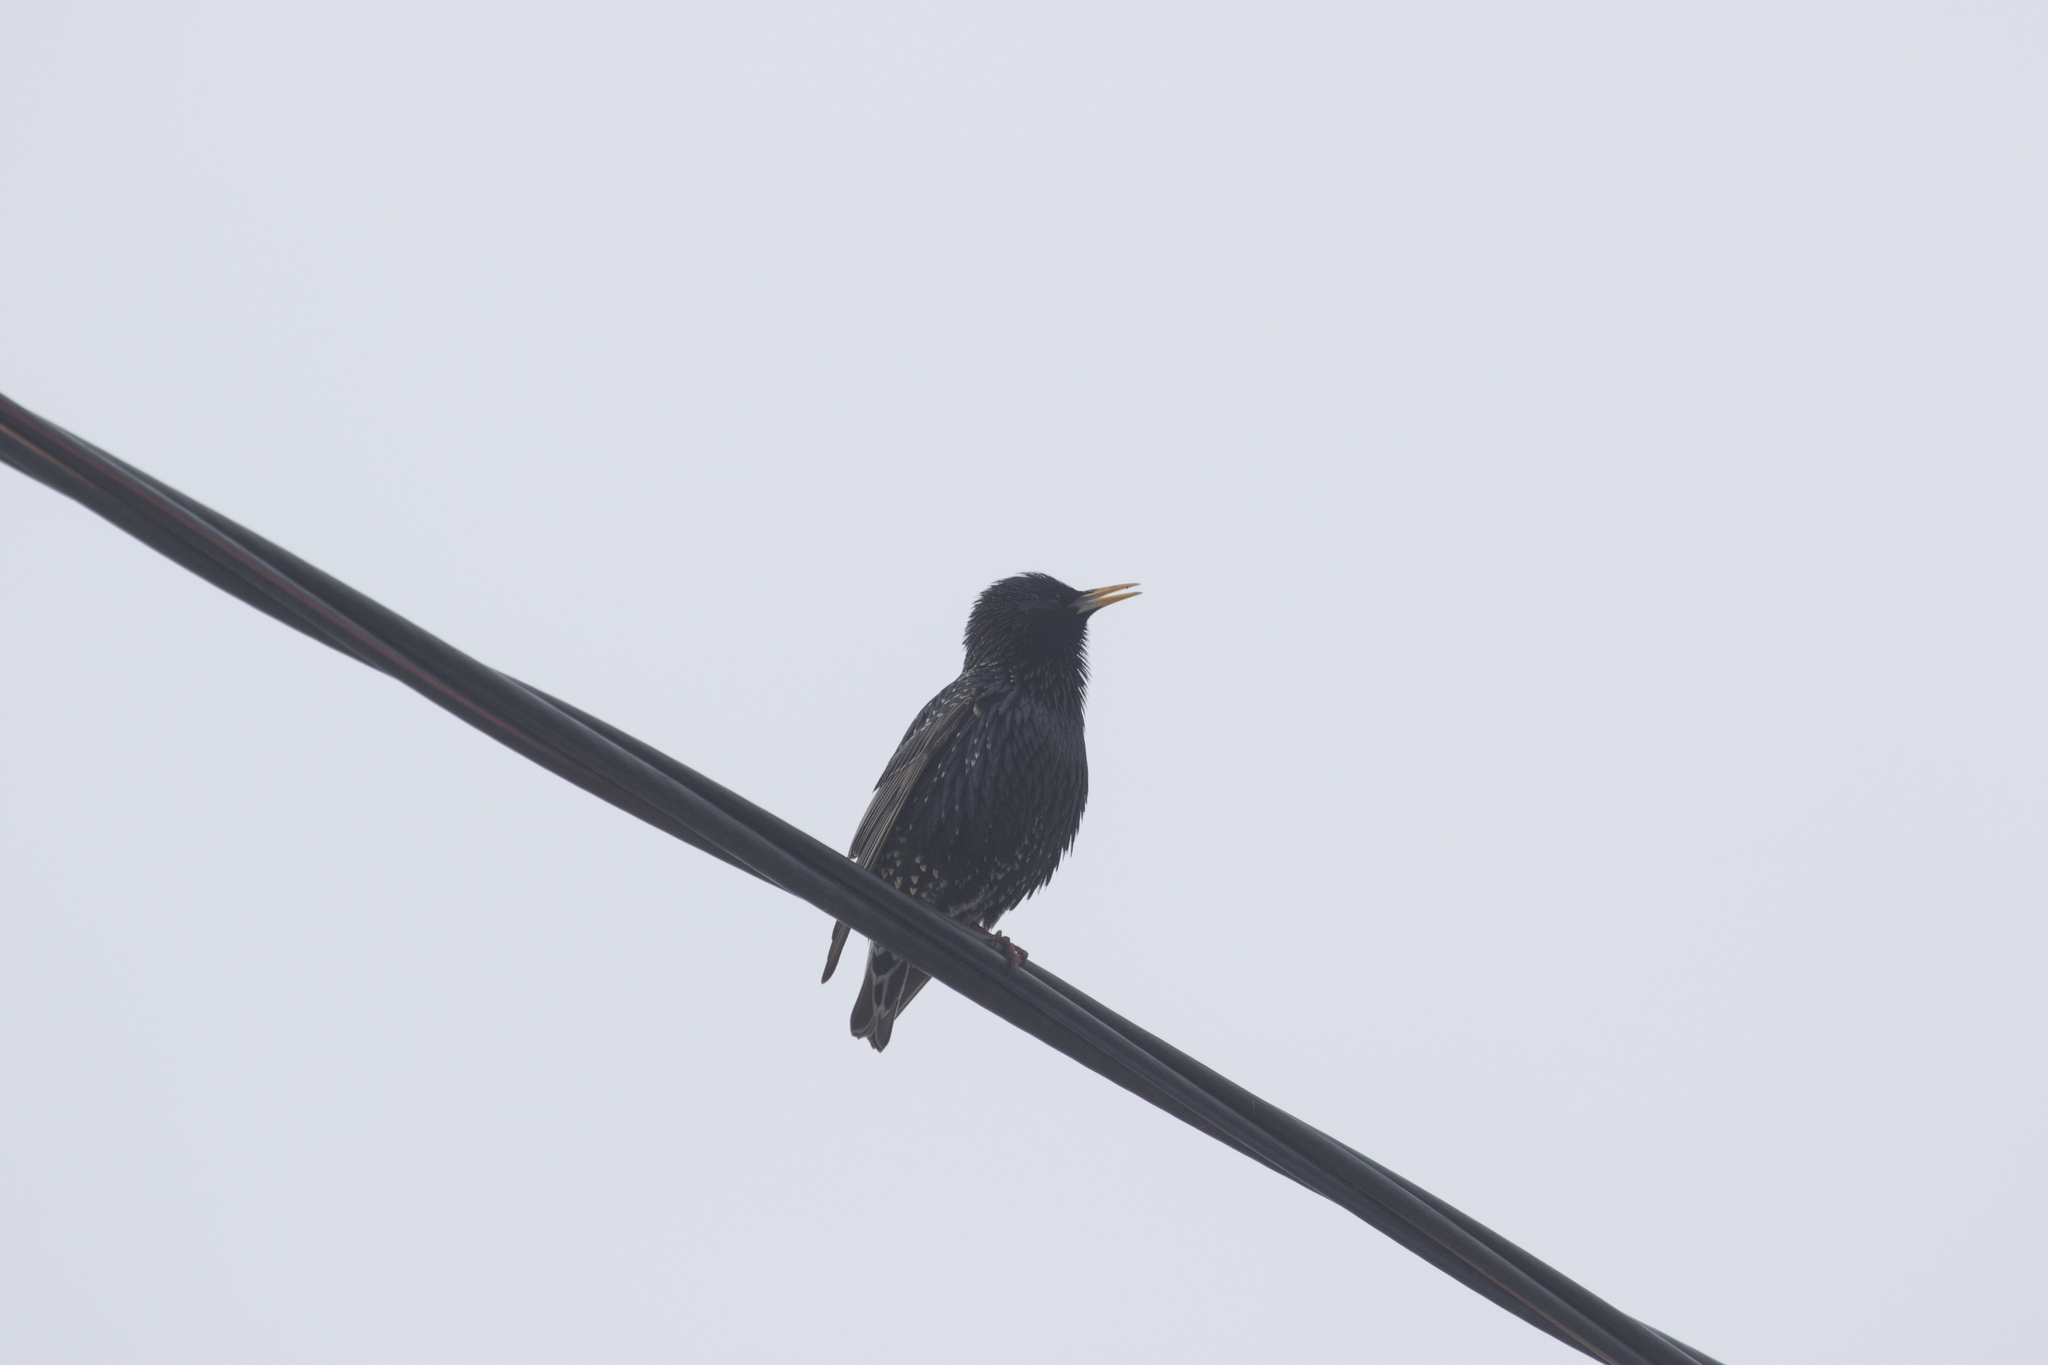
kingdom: Animalia
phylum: Chordata
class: Aves
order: Passeriformes
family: Sturnidae
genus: Sturnus
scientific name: Sturnus vulgaris
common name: Common starling
